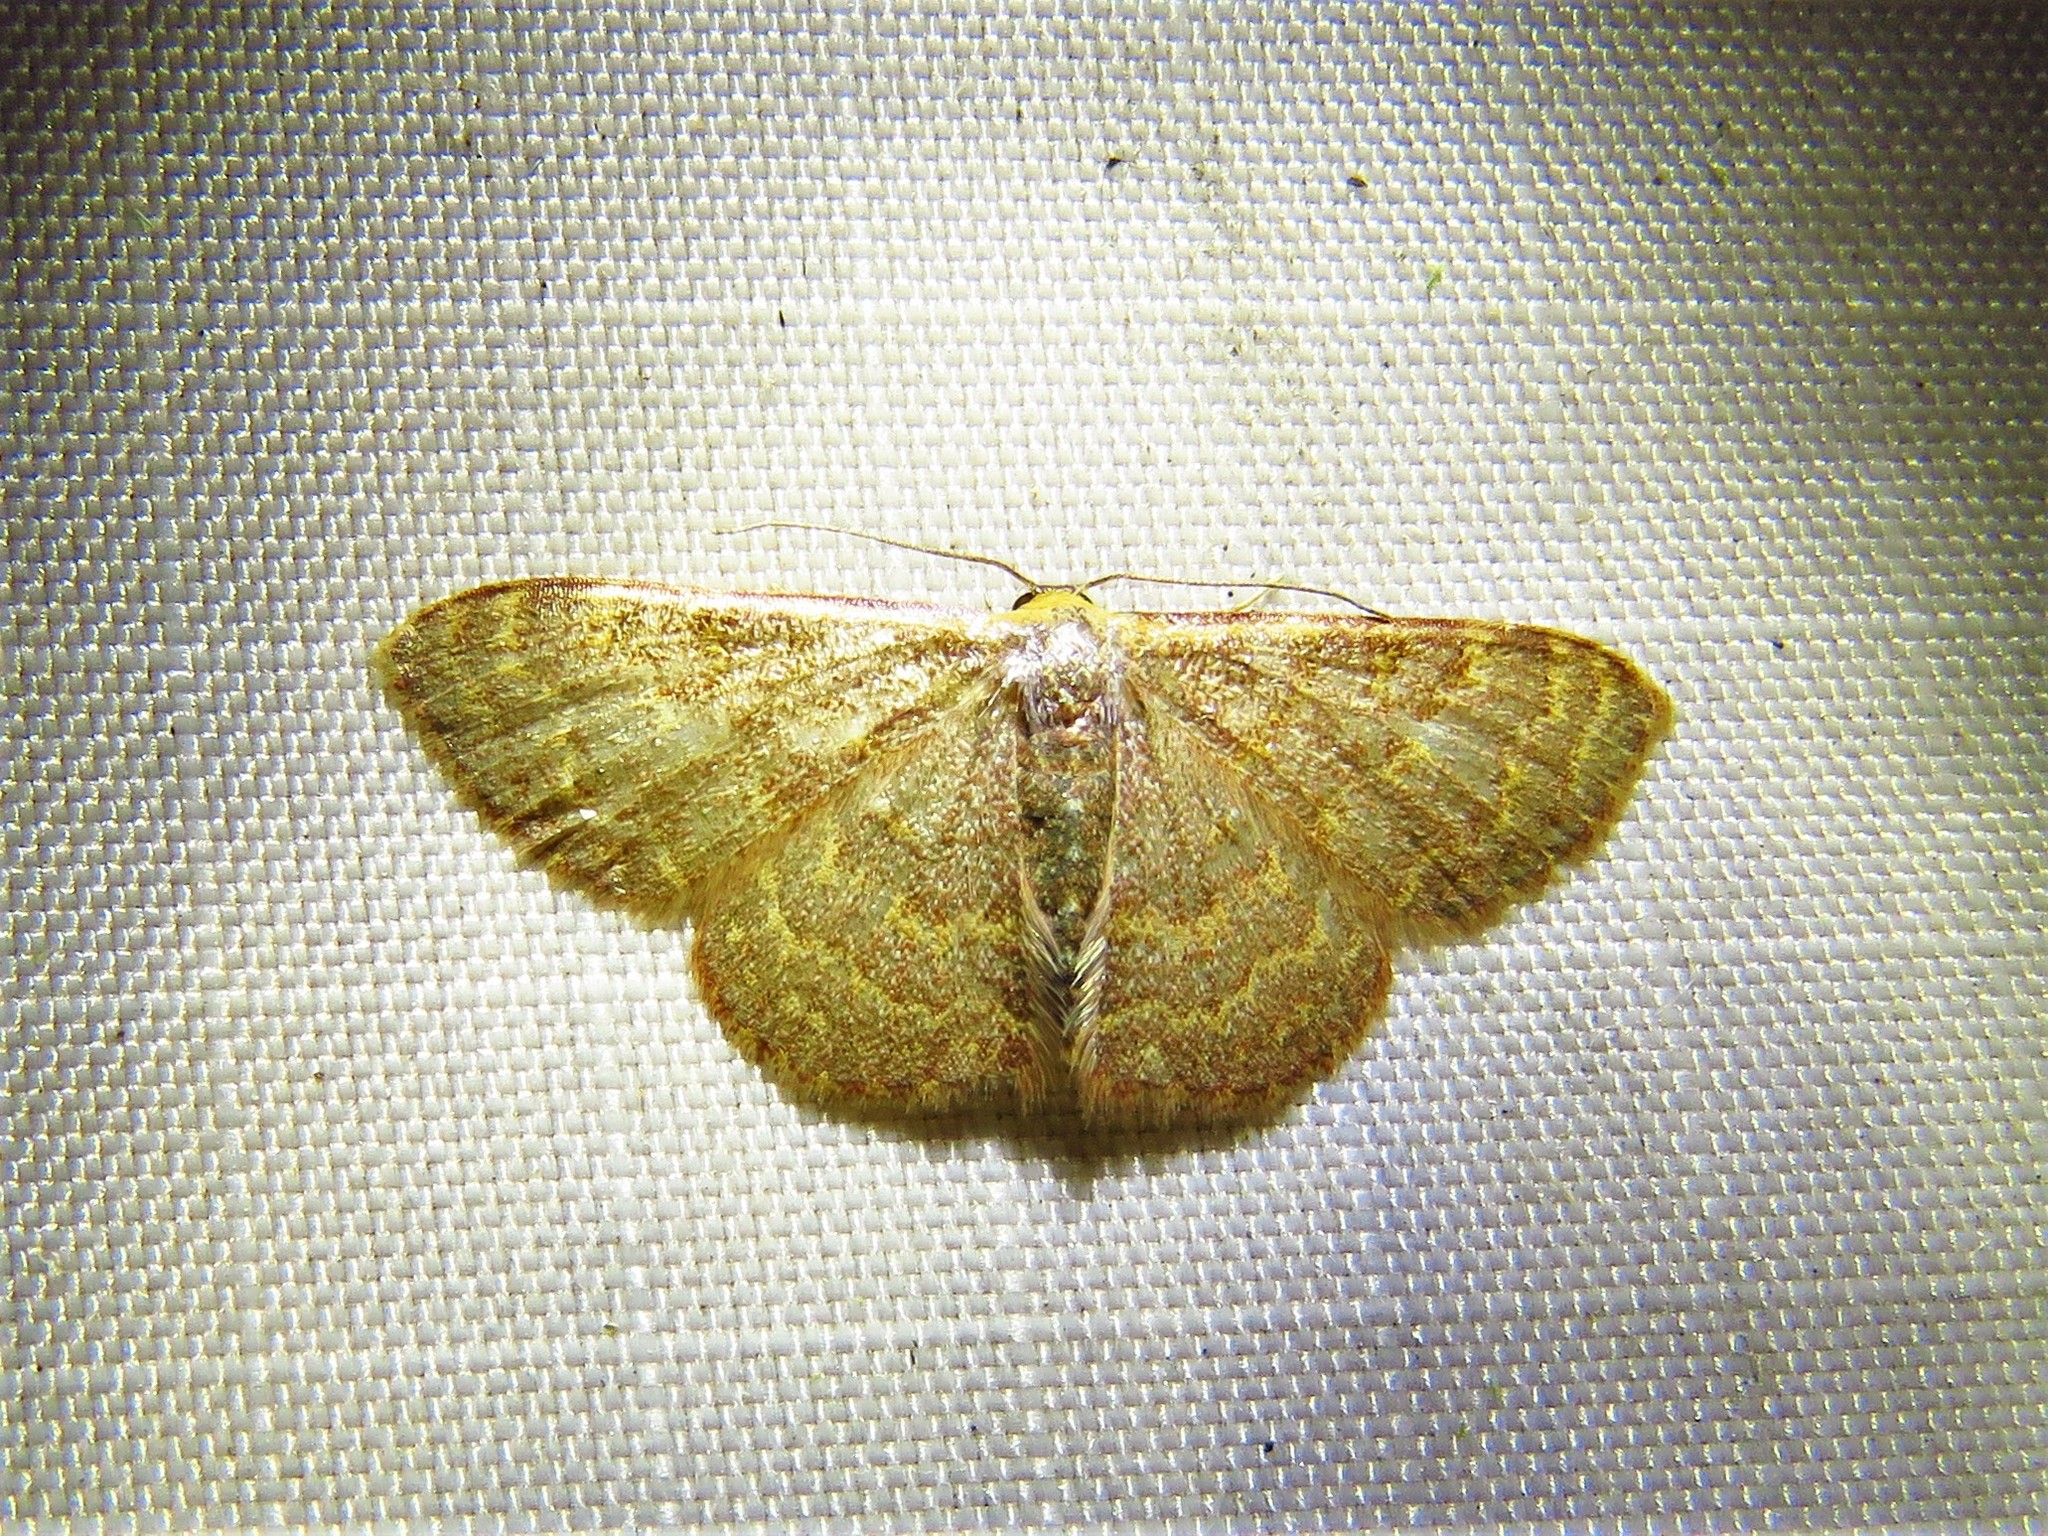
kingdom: Animalia
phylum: Arthropoda
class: Insecta
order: Lepidoptera
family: Geometridae
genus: Leptostales
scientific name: Leptostales pannaria
